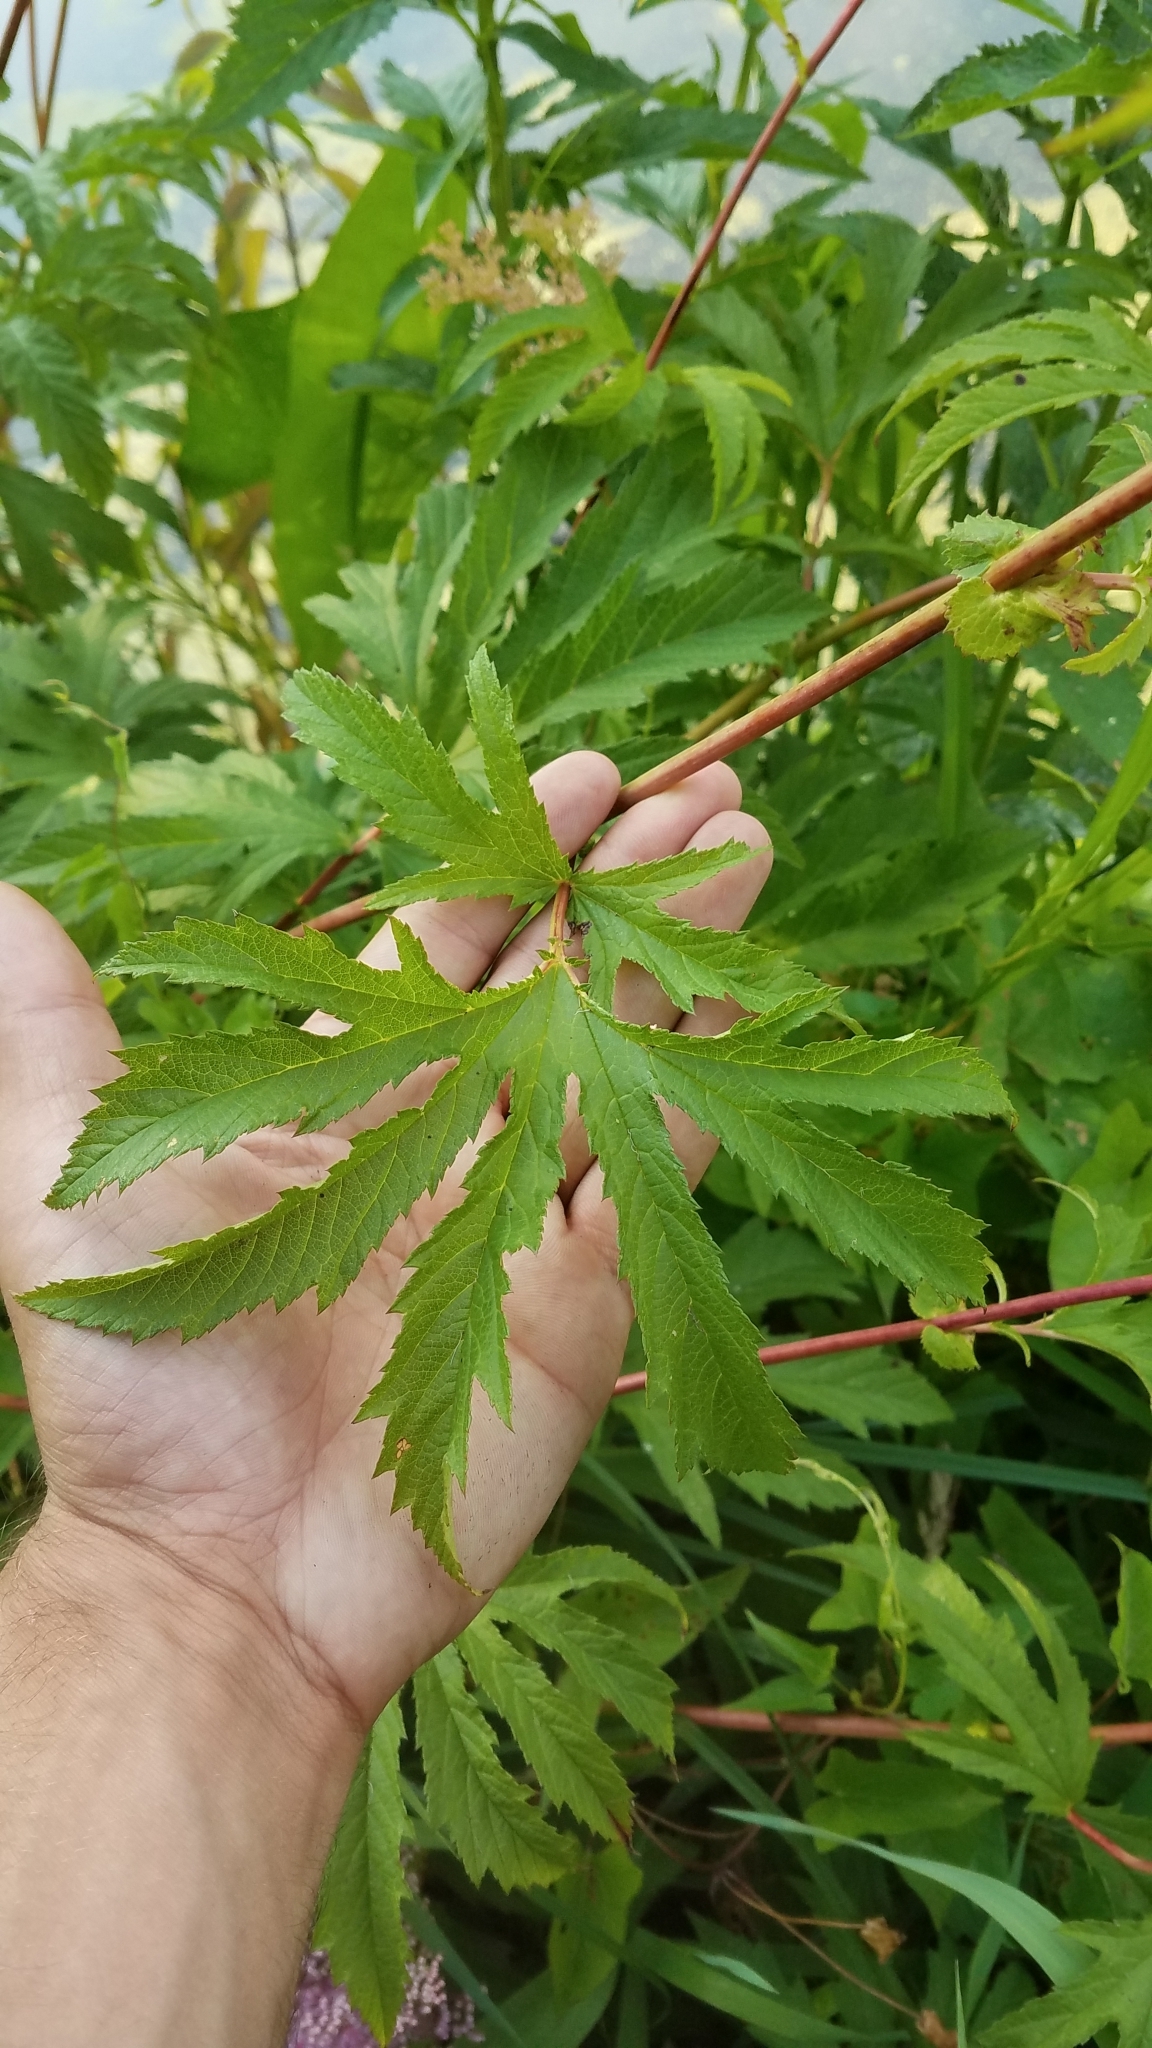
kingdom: Plantae
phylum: Tracheophyta
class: Magnoliopsida
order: Rosales
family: Rosaceae
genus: Filipendula
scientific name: Filipendula rubra
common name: Queen-of-the-prairie
